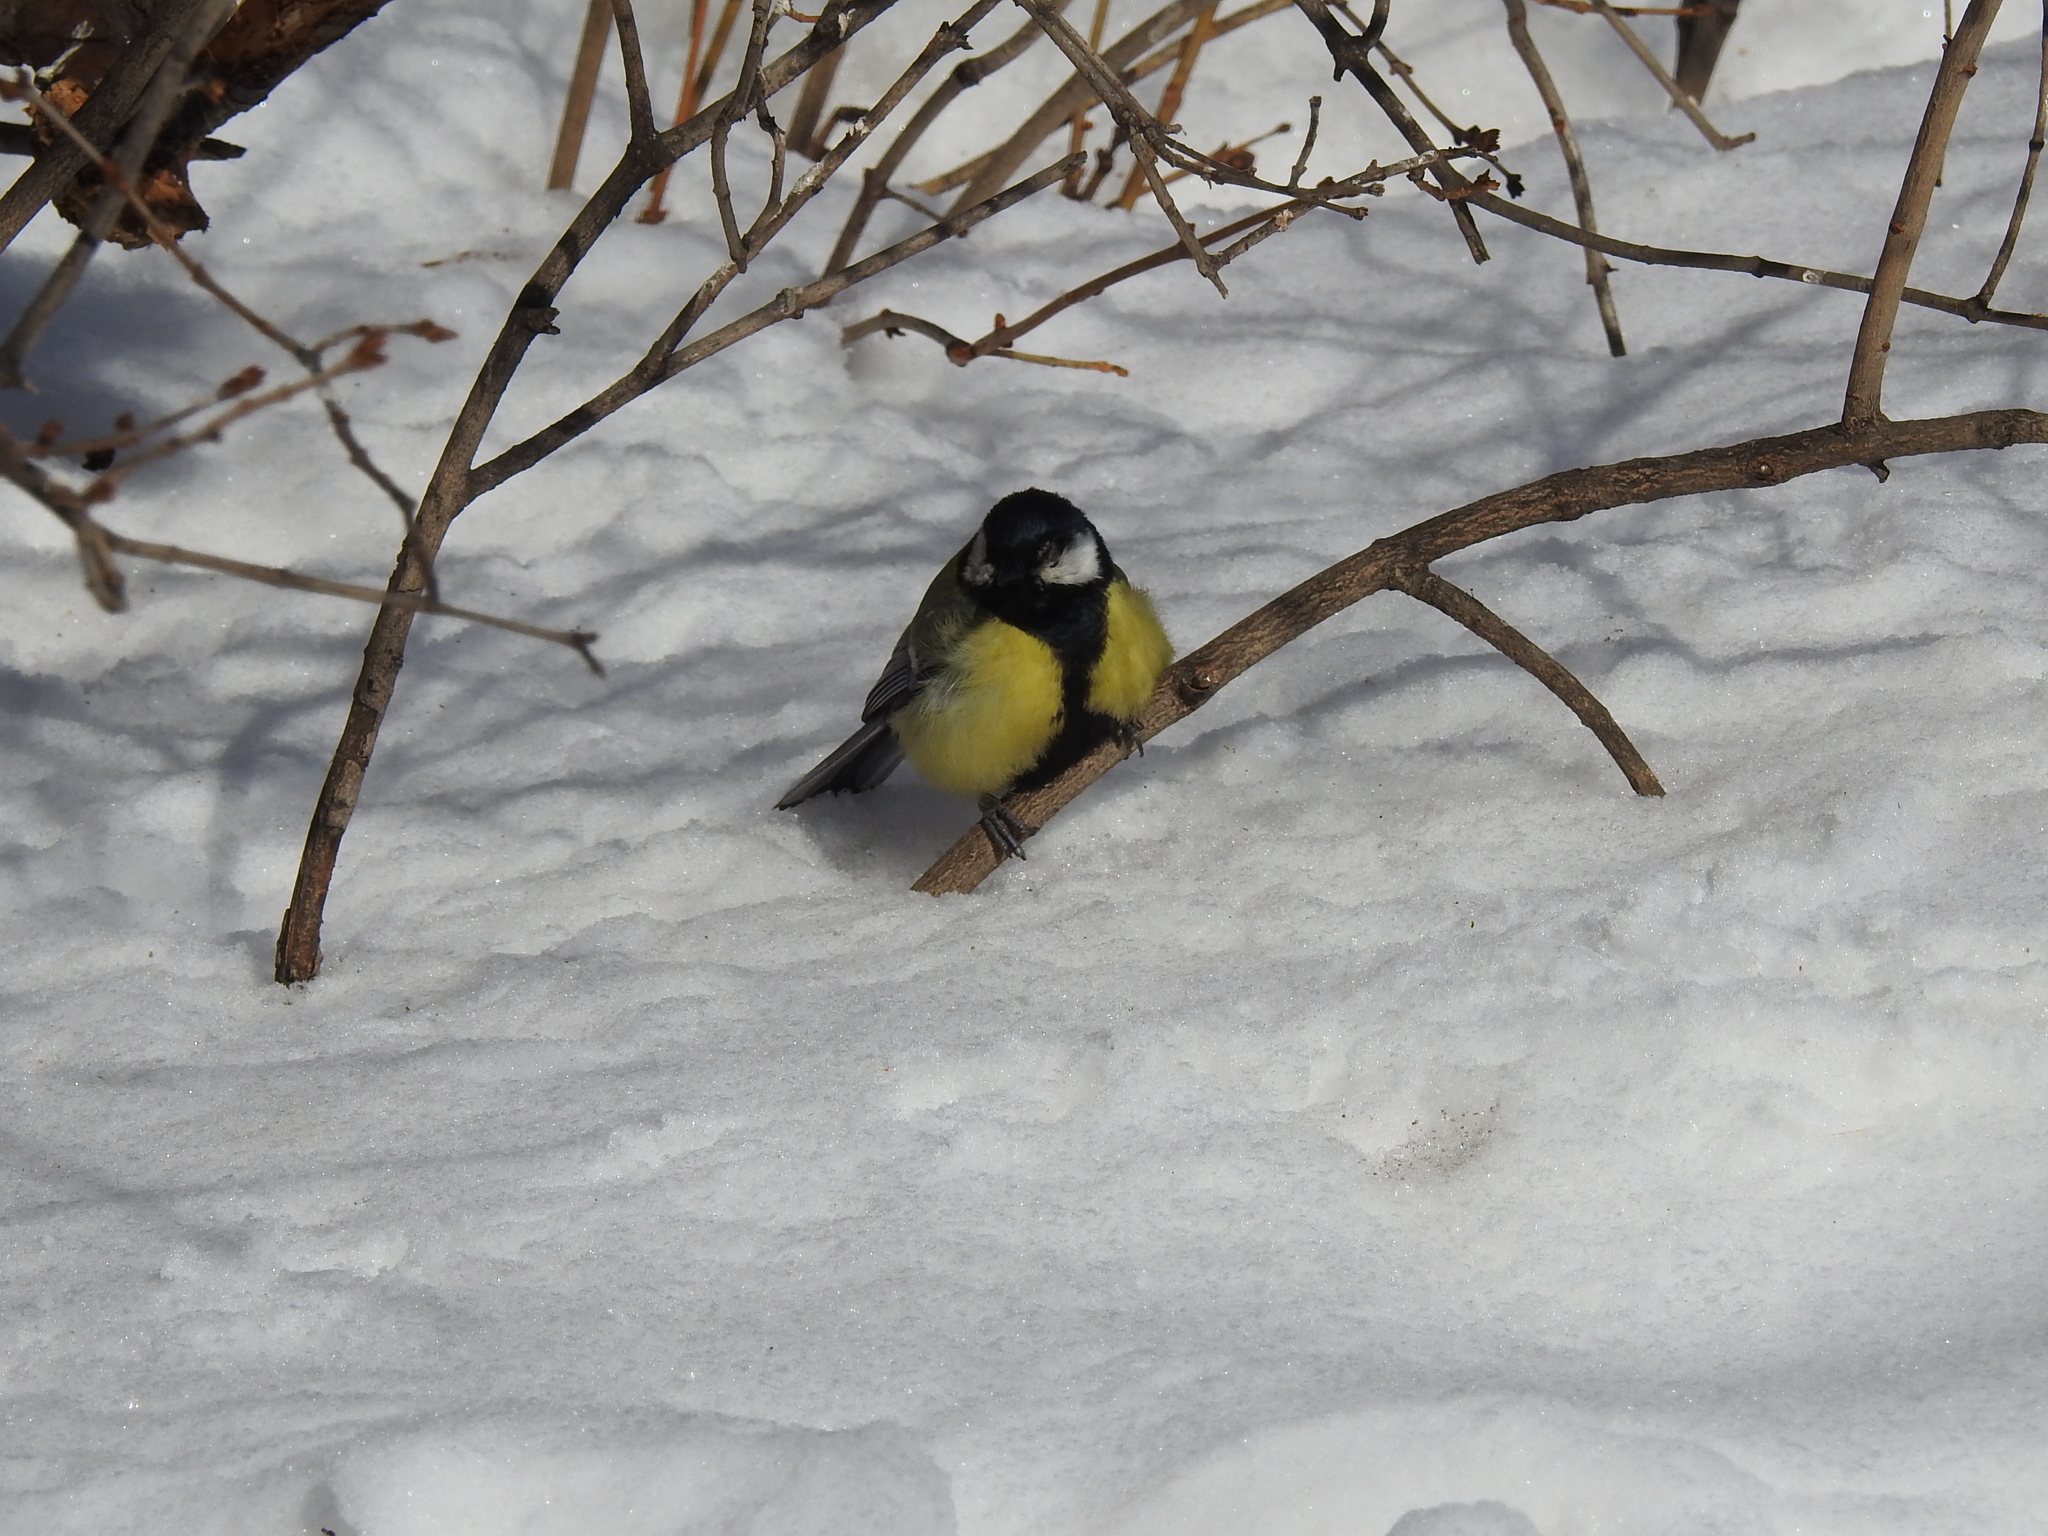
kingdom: Animalia
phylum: Chordata
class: Aves
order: Passeriformes
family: Paridae
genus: Parus
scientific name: Parus major
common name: Great tit
